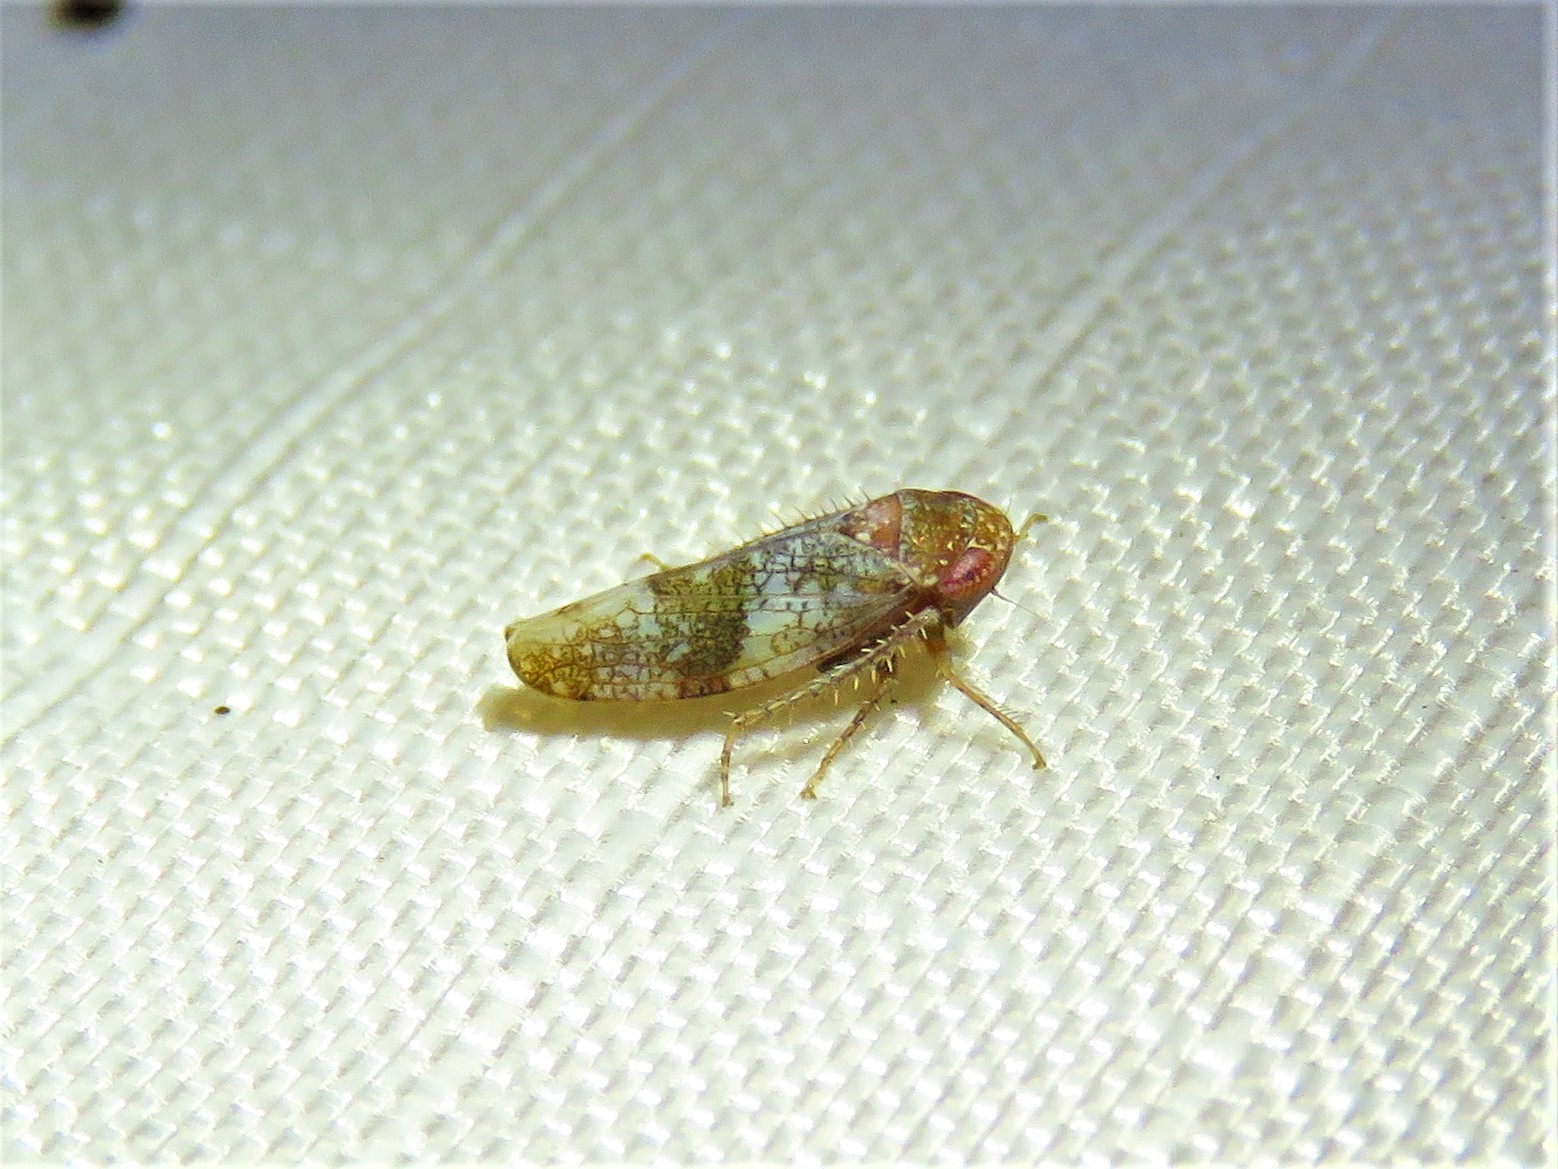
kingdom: Animalia
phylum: Arthropoda
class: Insecta
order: Hemiptera
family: Cicadellidae
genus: Norvellina
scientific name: Norvellina helenae
